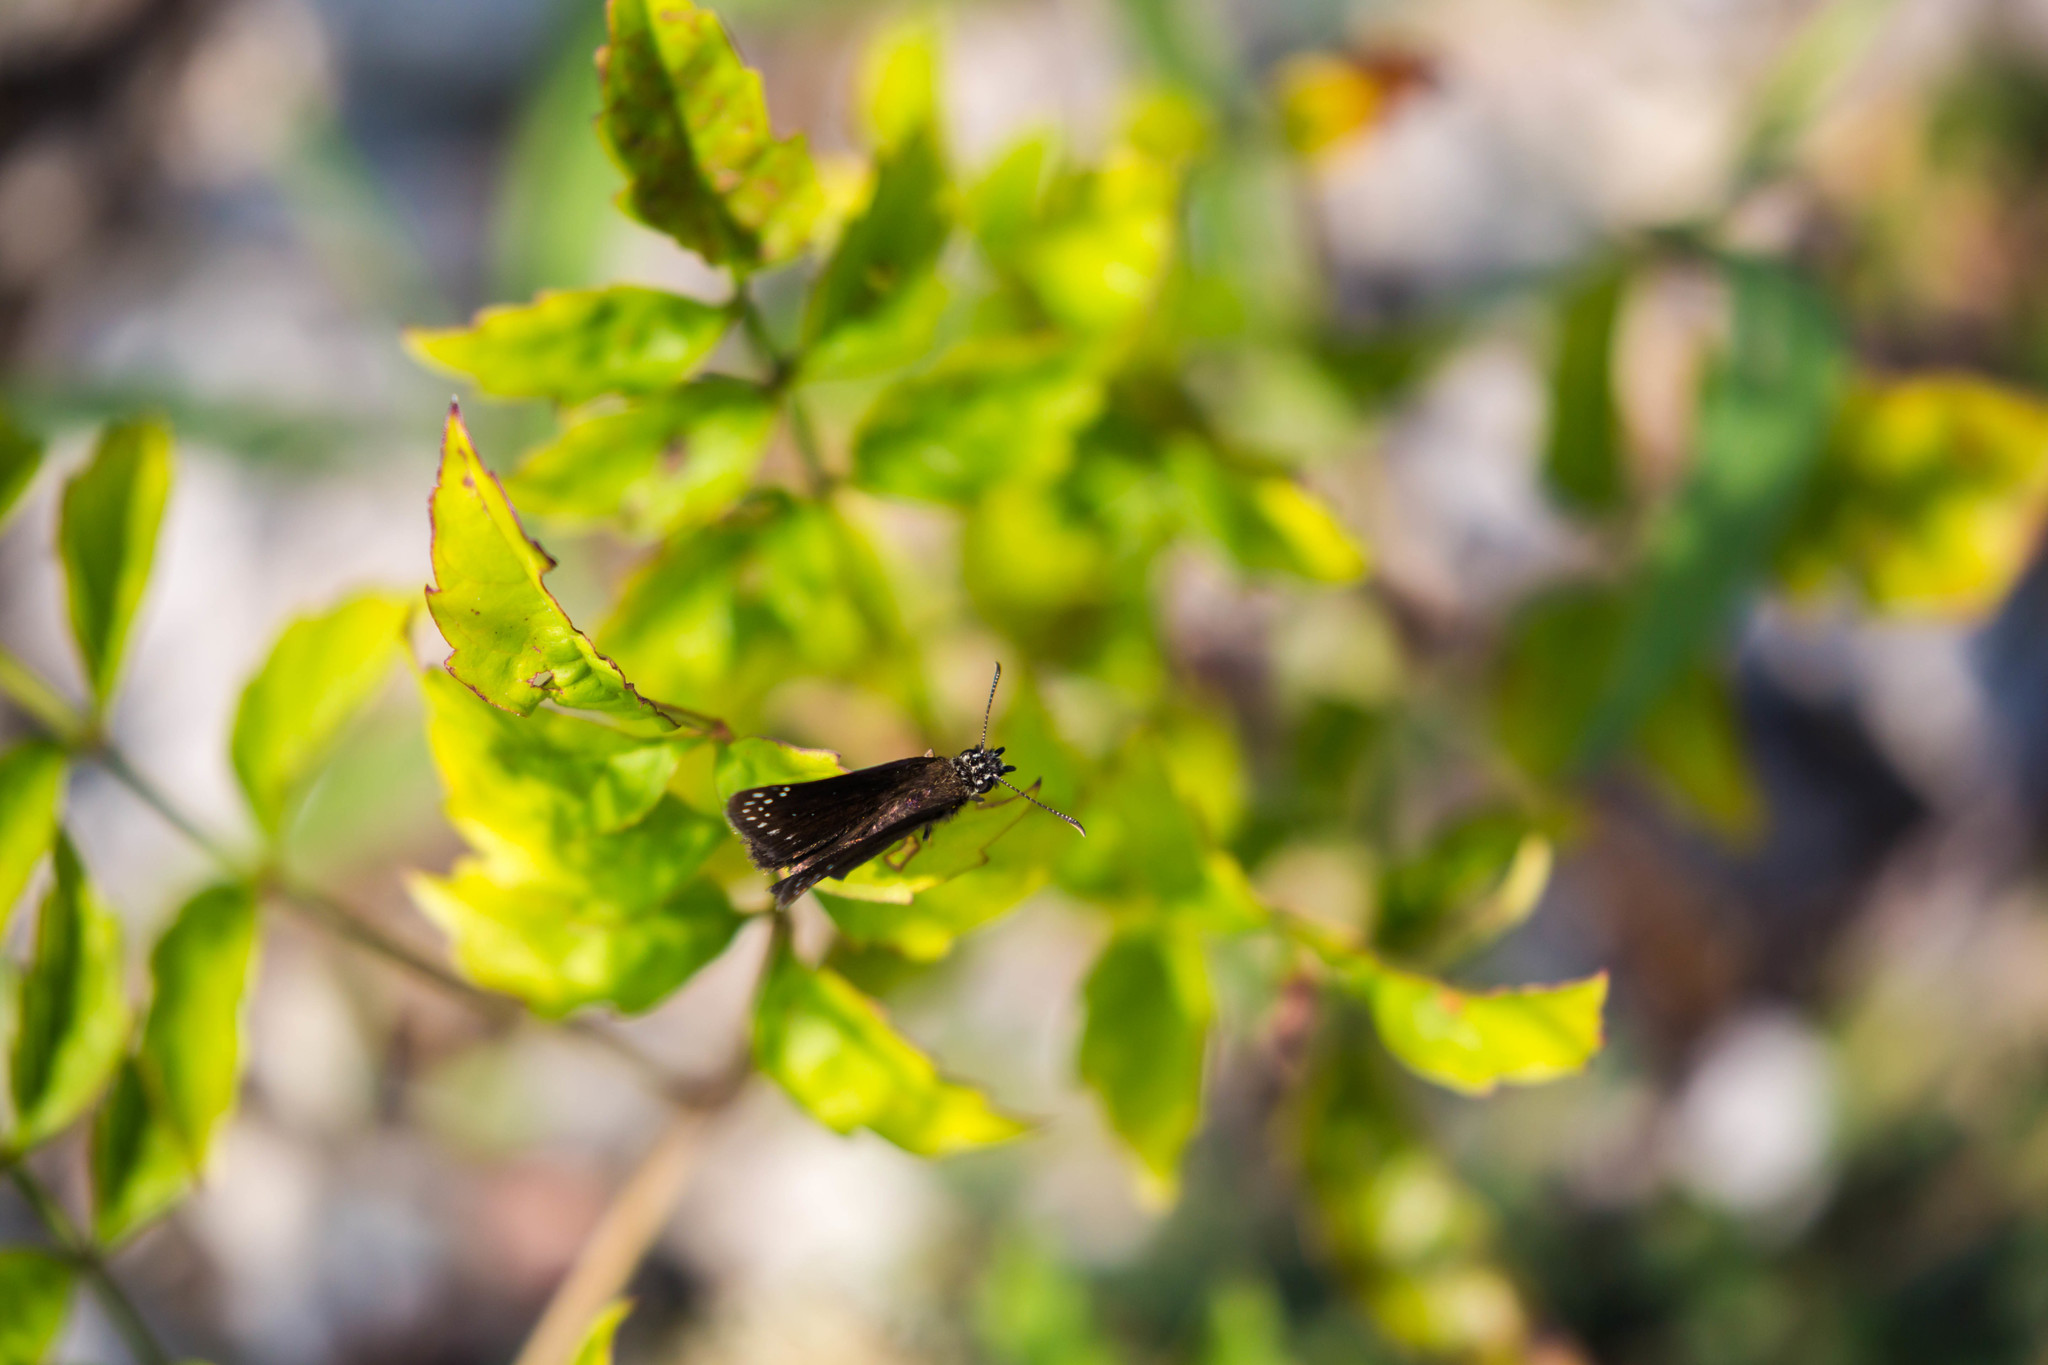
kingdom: Animalia
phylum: Arthropoda
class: Insecta
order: Lepidoptera
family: Hesperiidae
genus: Pholisora
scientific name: Pholisora catullus
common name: Common sootywing
